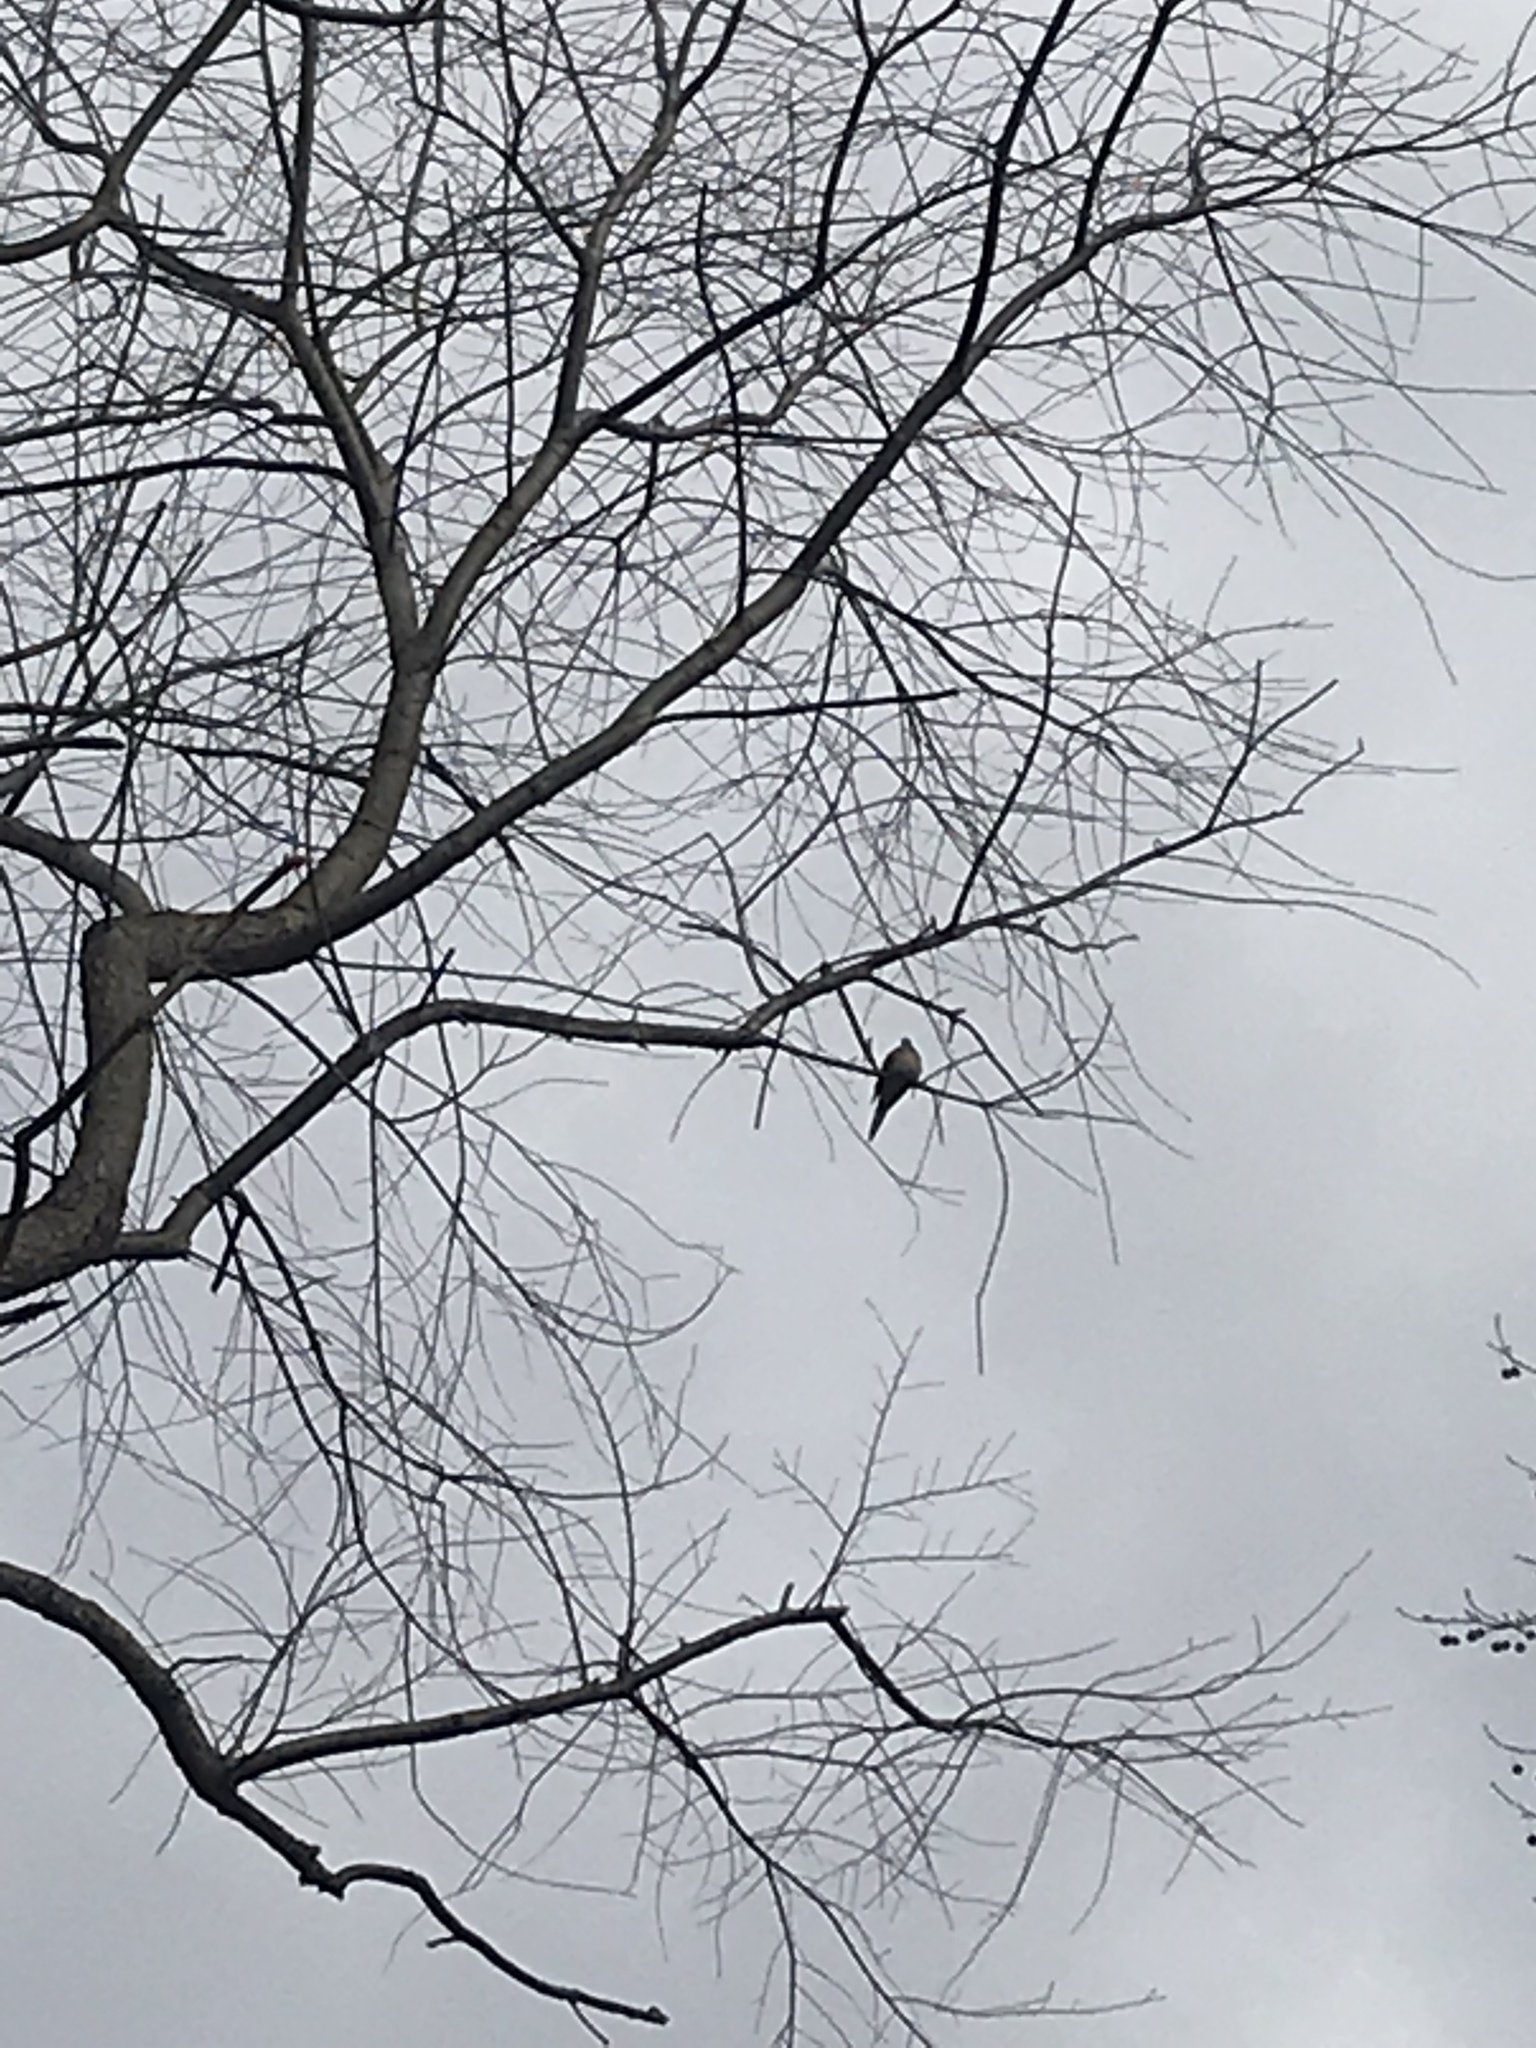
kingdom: Animalia
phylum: Chordata
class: Aves
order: Columbiformes
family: Columbidae
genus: Zenaida
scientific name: Zenaida macroura
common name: Mourning dove
